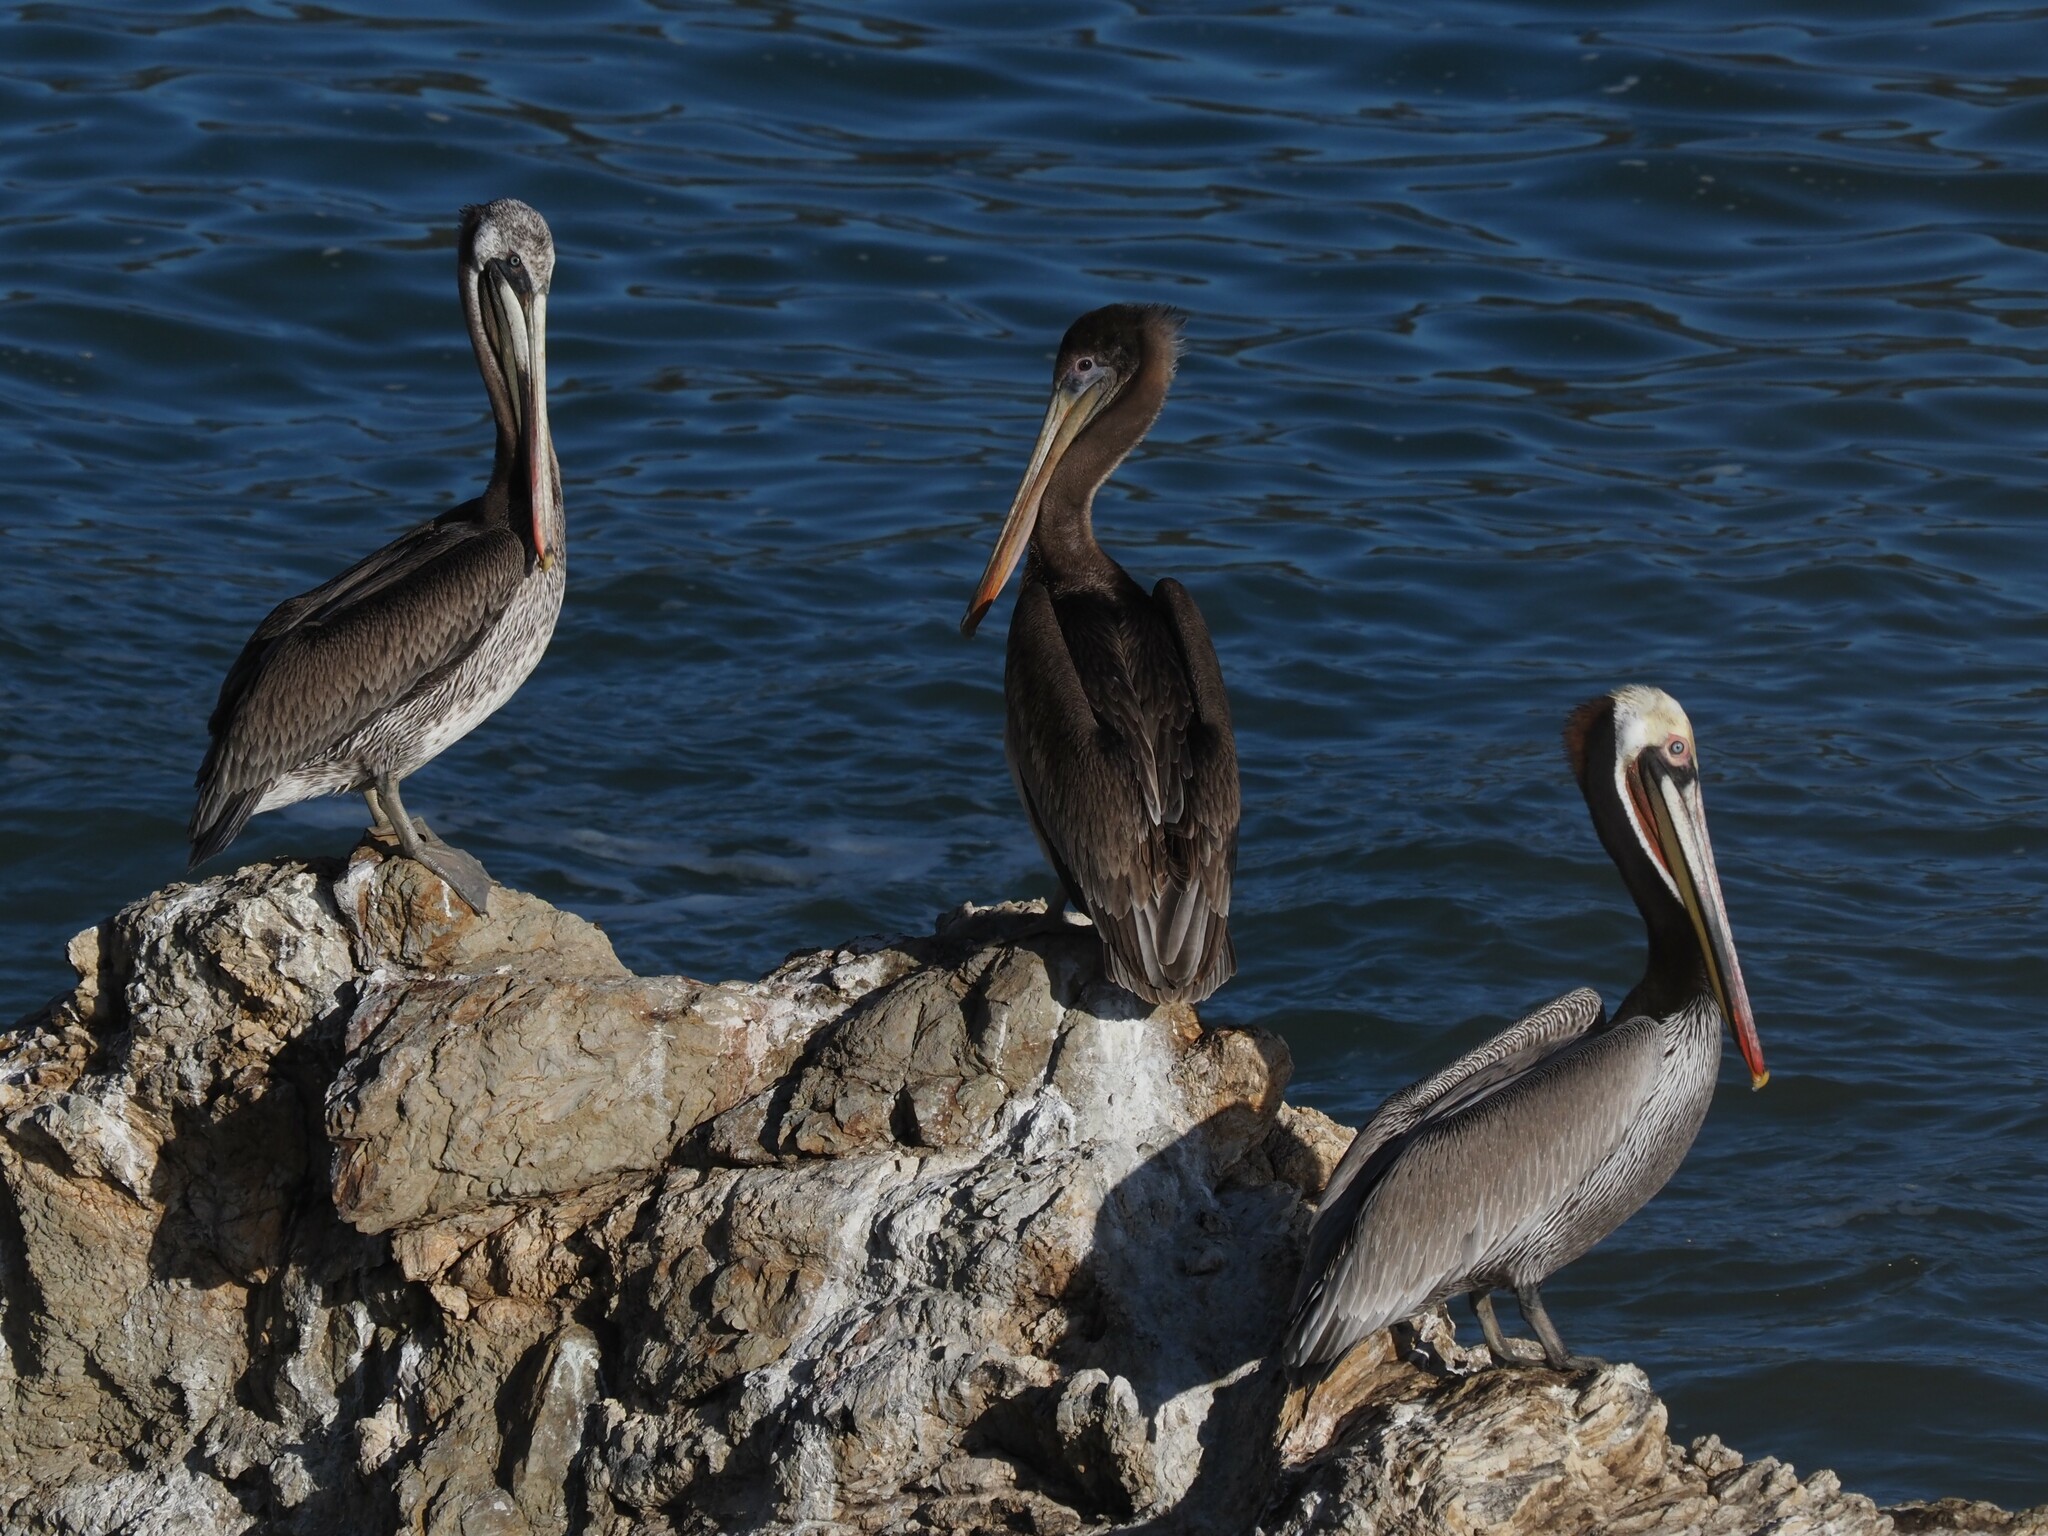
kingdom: Animalia
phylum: Chordata
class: Aves
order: Pelecaniformes
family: Pelecanidae
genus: Pelecanus
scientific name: Pelecanus occidentalis
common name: Brown pelican
